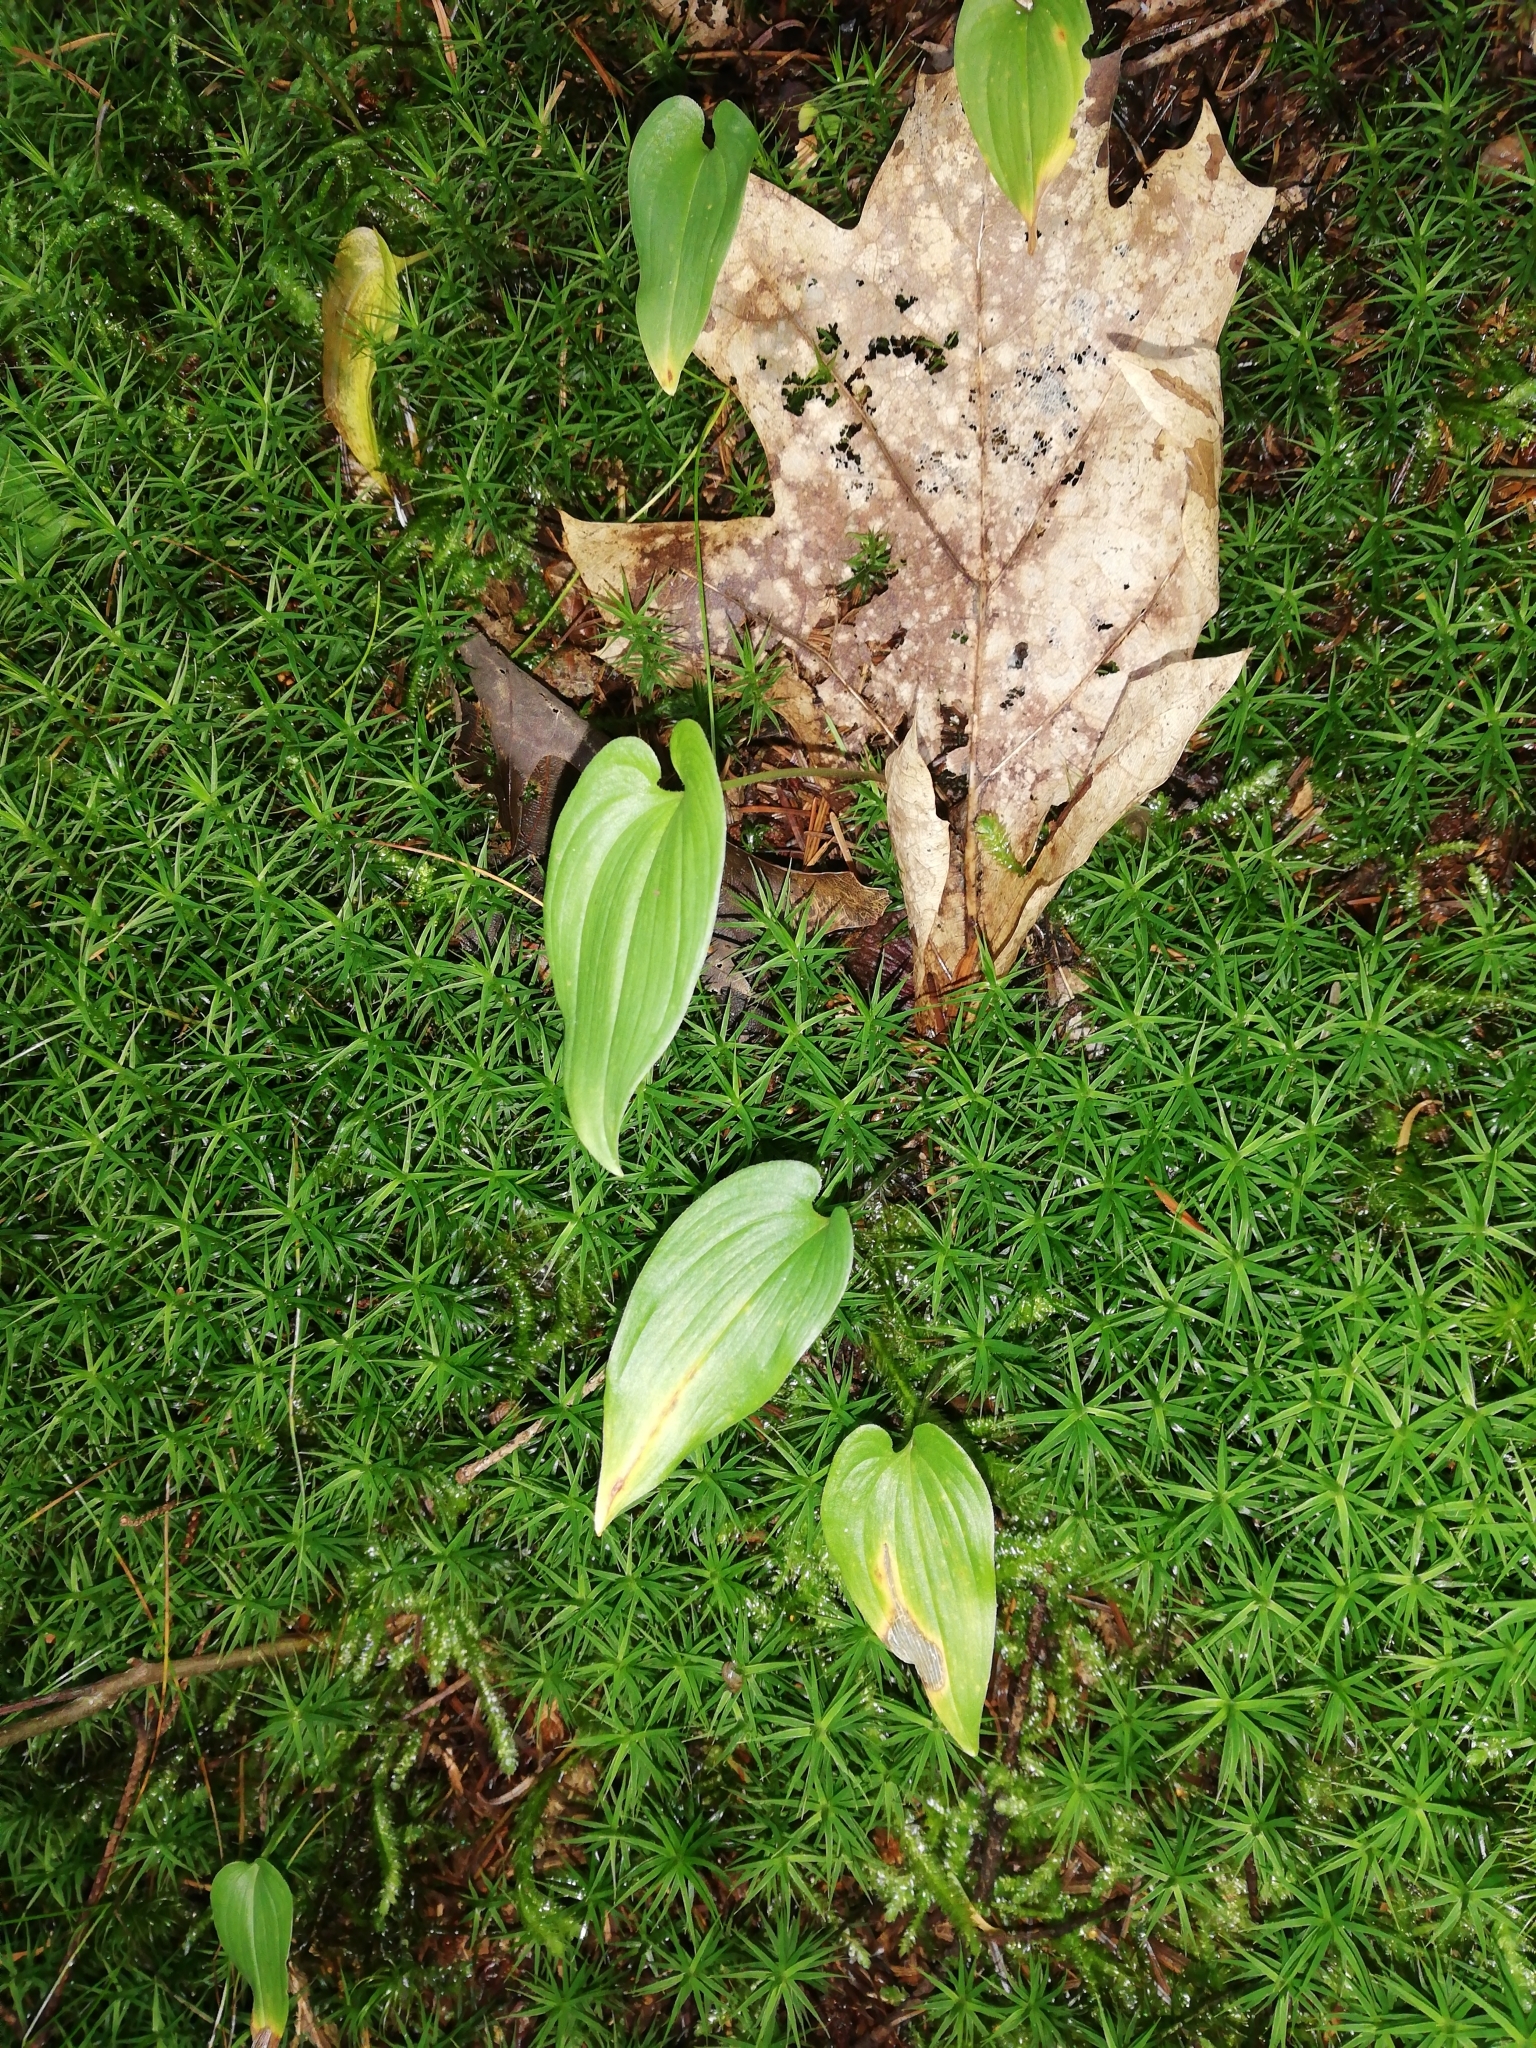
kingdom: Plantae
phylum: Tracheophyta
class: Liliopsida
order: Asparagales
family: Asparagaceae
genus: Maianthemum
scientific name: Maianthemum bifolium
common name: May lily
